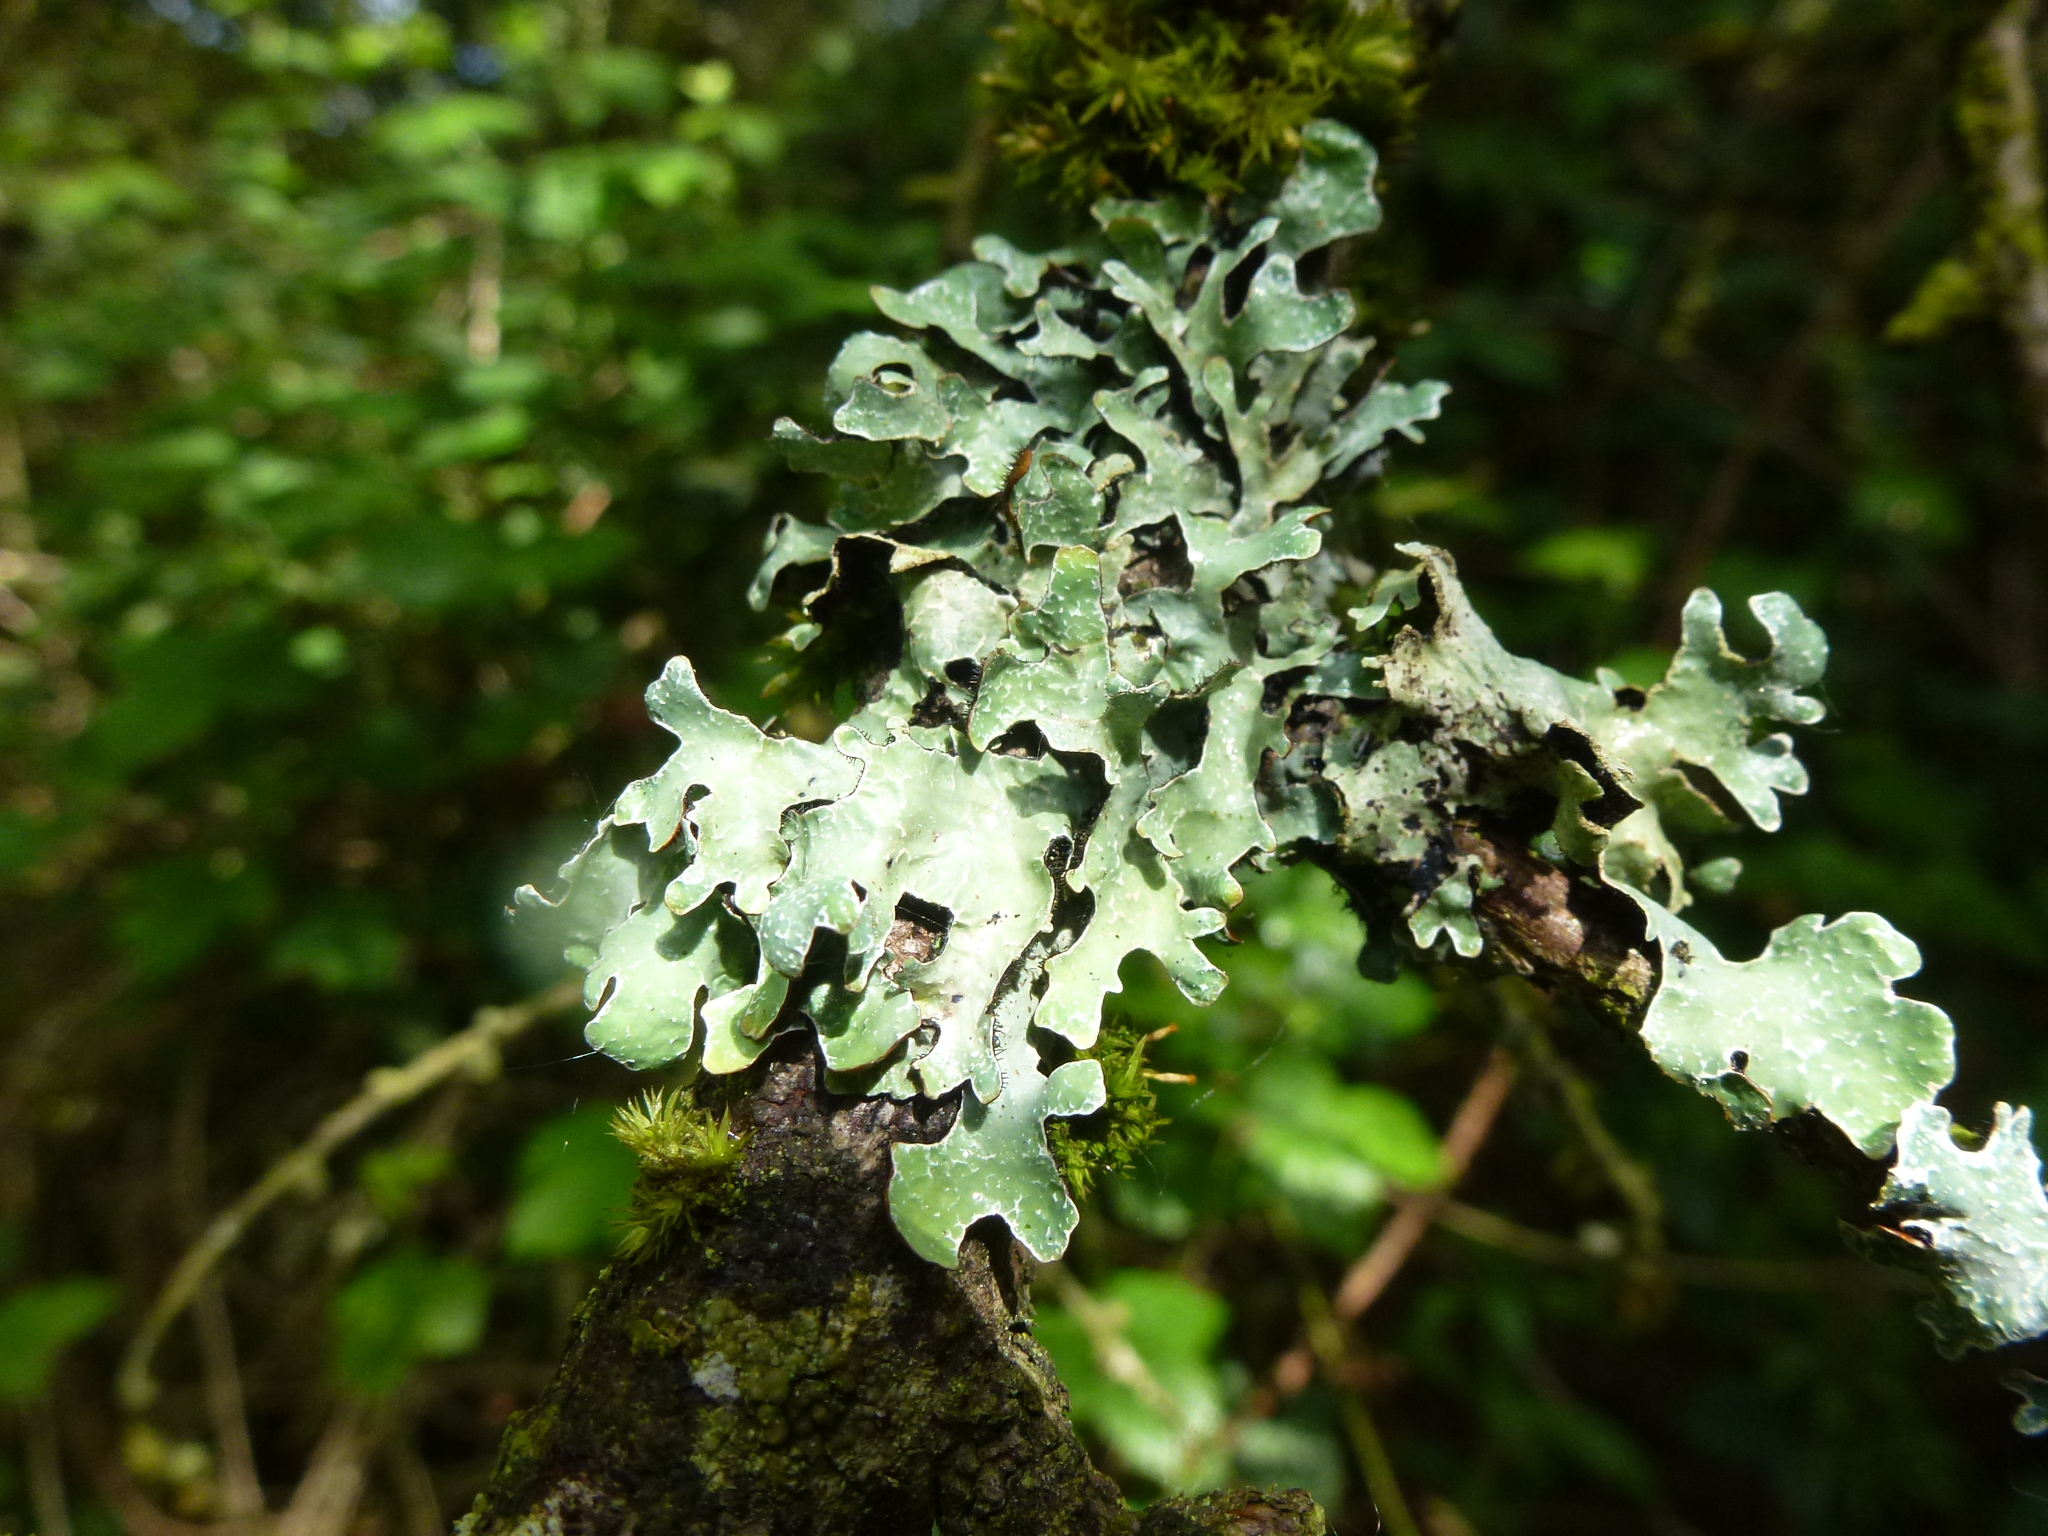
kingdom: Fungi
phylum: Ascomycota
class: Lecanoromycetes
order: Lecanorales
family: Parmeliaceae
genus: Parmelia
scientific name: Parmelia sulcata
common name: Netted shield lichen
